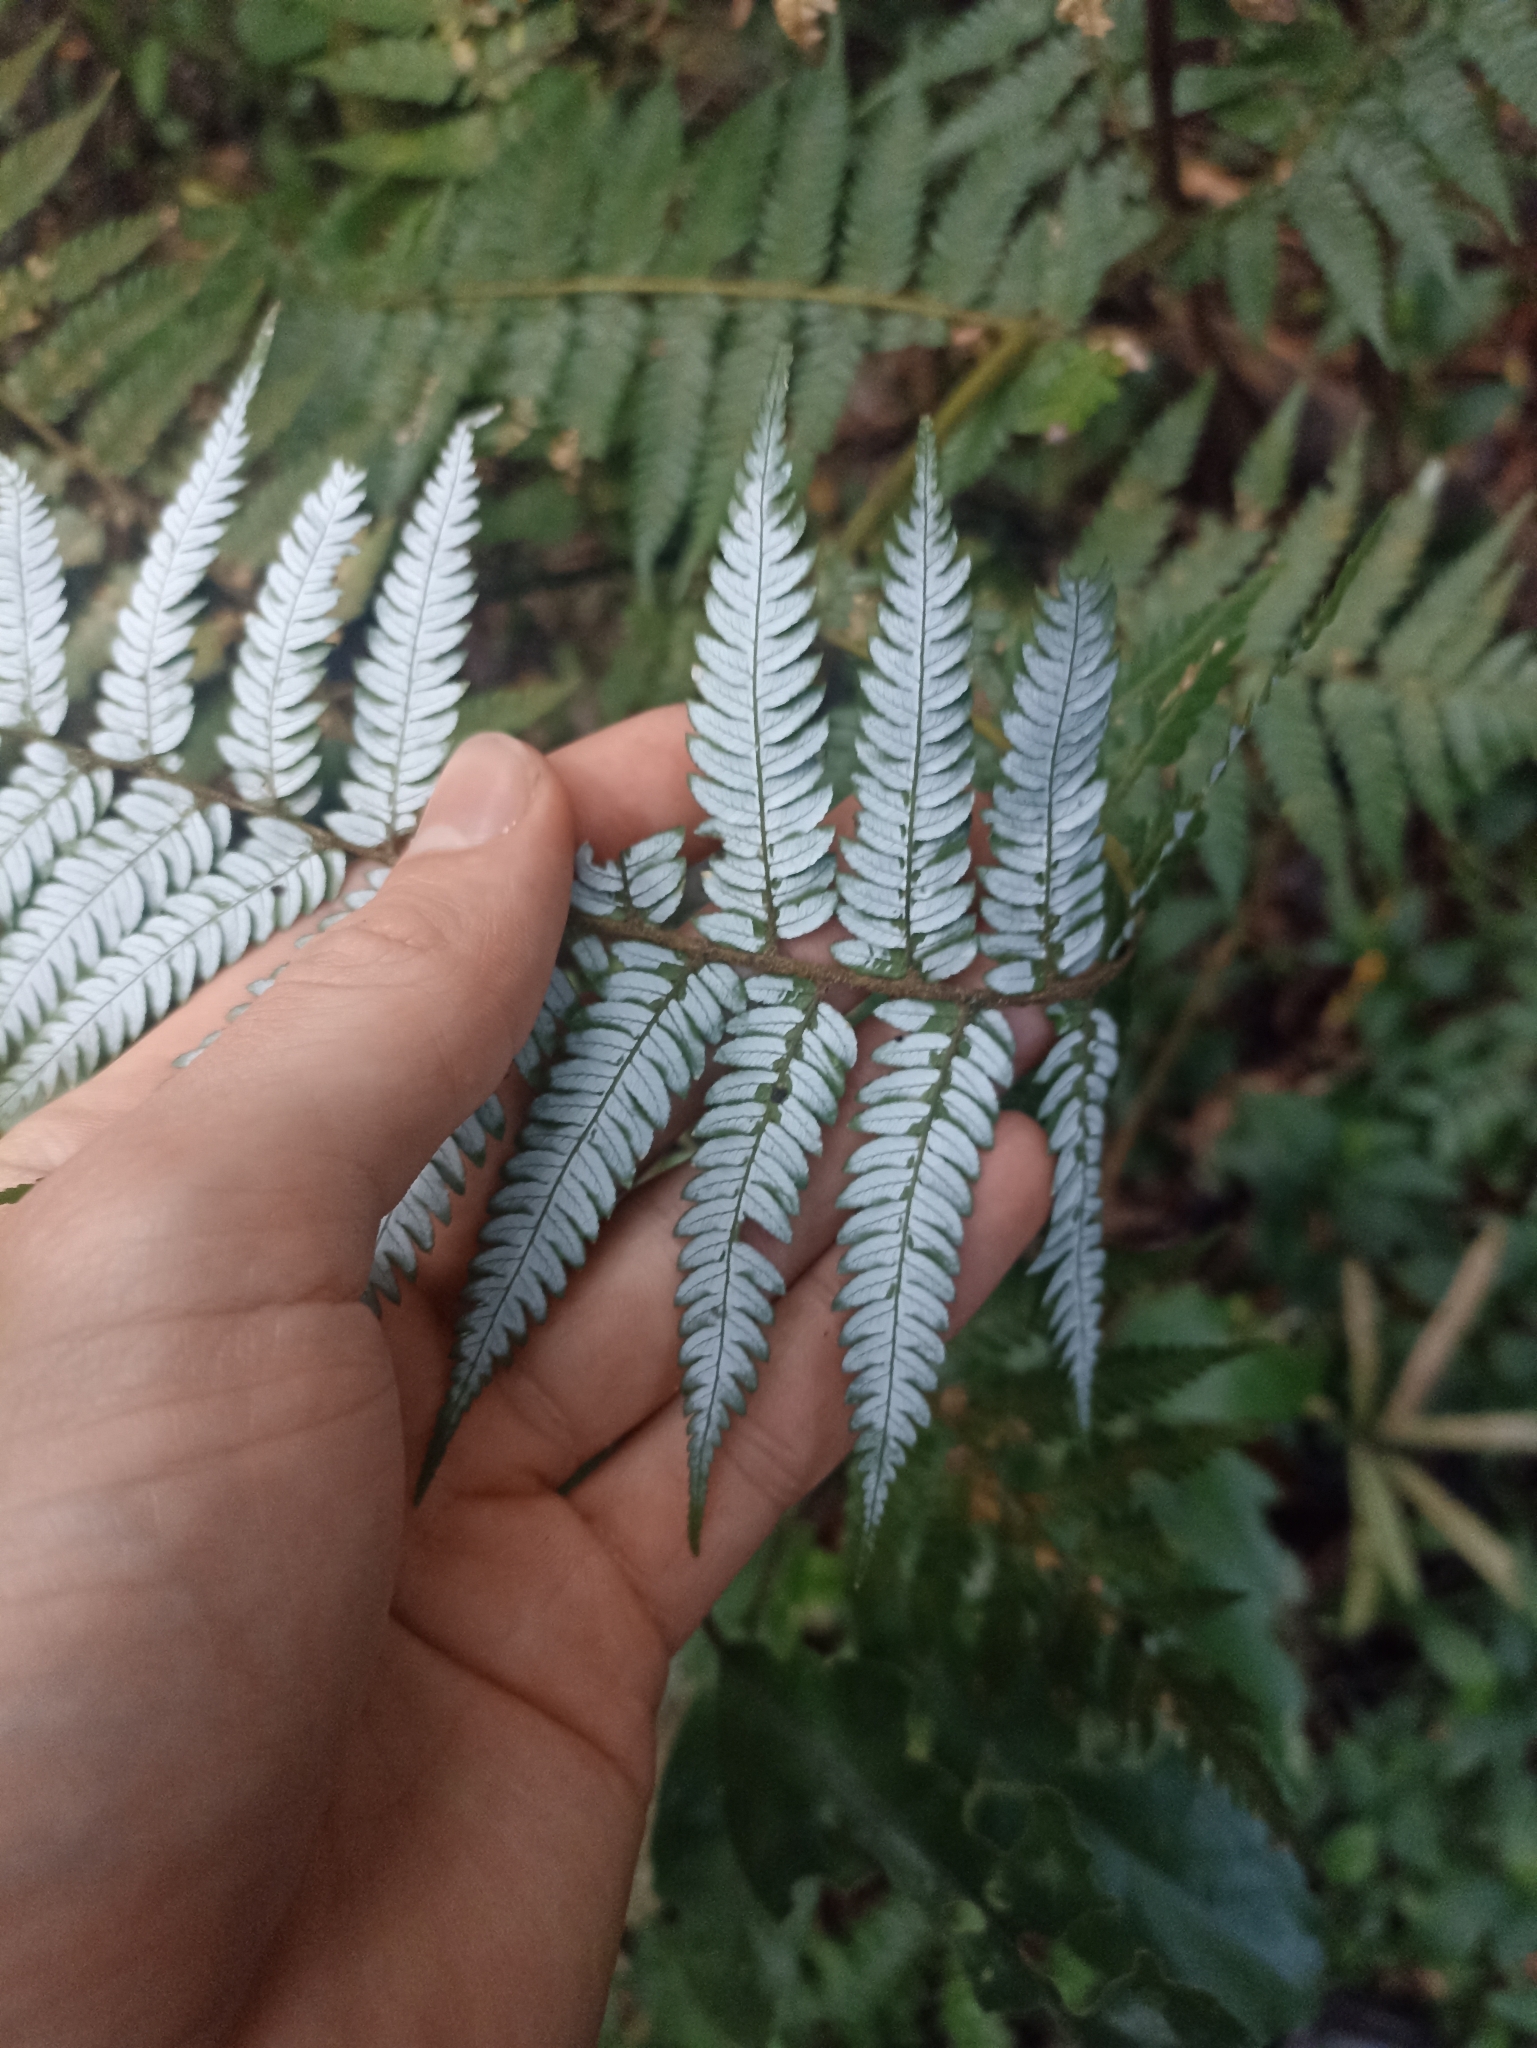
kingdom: Plantae
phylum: Tracheophyta
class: Polypodiopsida
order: Cyatheales
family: Cyatheaceae
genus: Alsophila
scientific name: Alsophila dealbata
